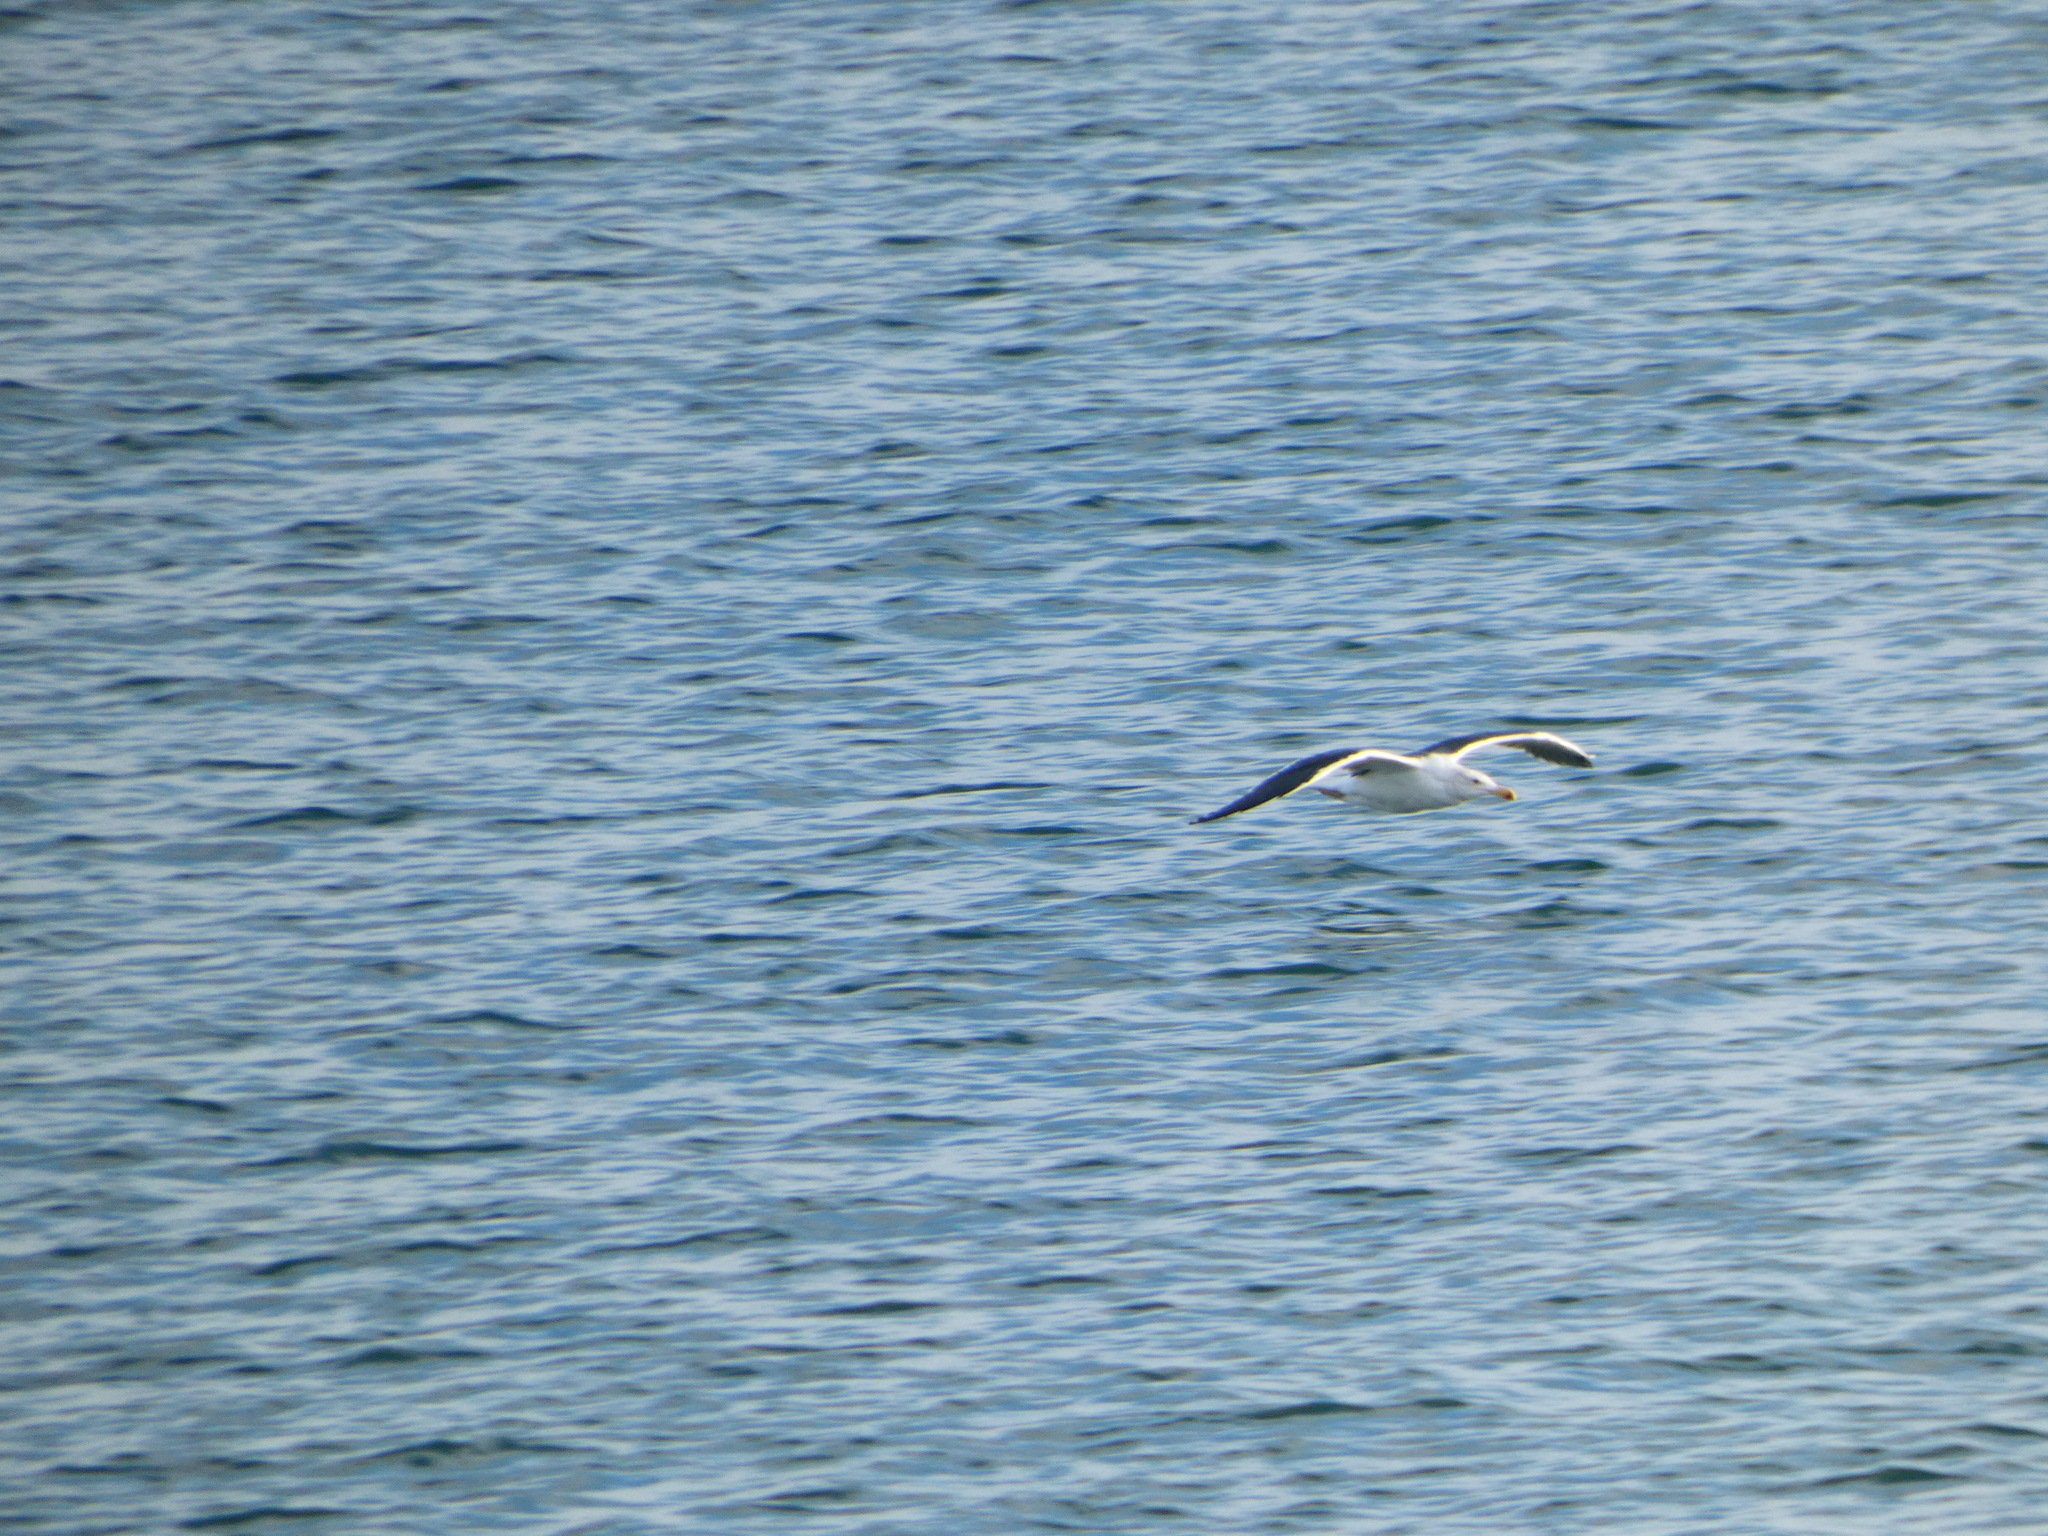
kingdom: Animalia
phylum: Chordata
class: Aves
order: Charadriiformes
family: Laridae
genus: Larus
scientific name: Larus marinus
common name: Great black-backed gull
